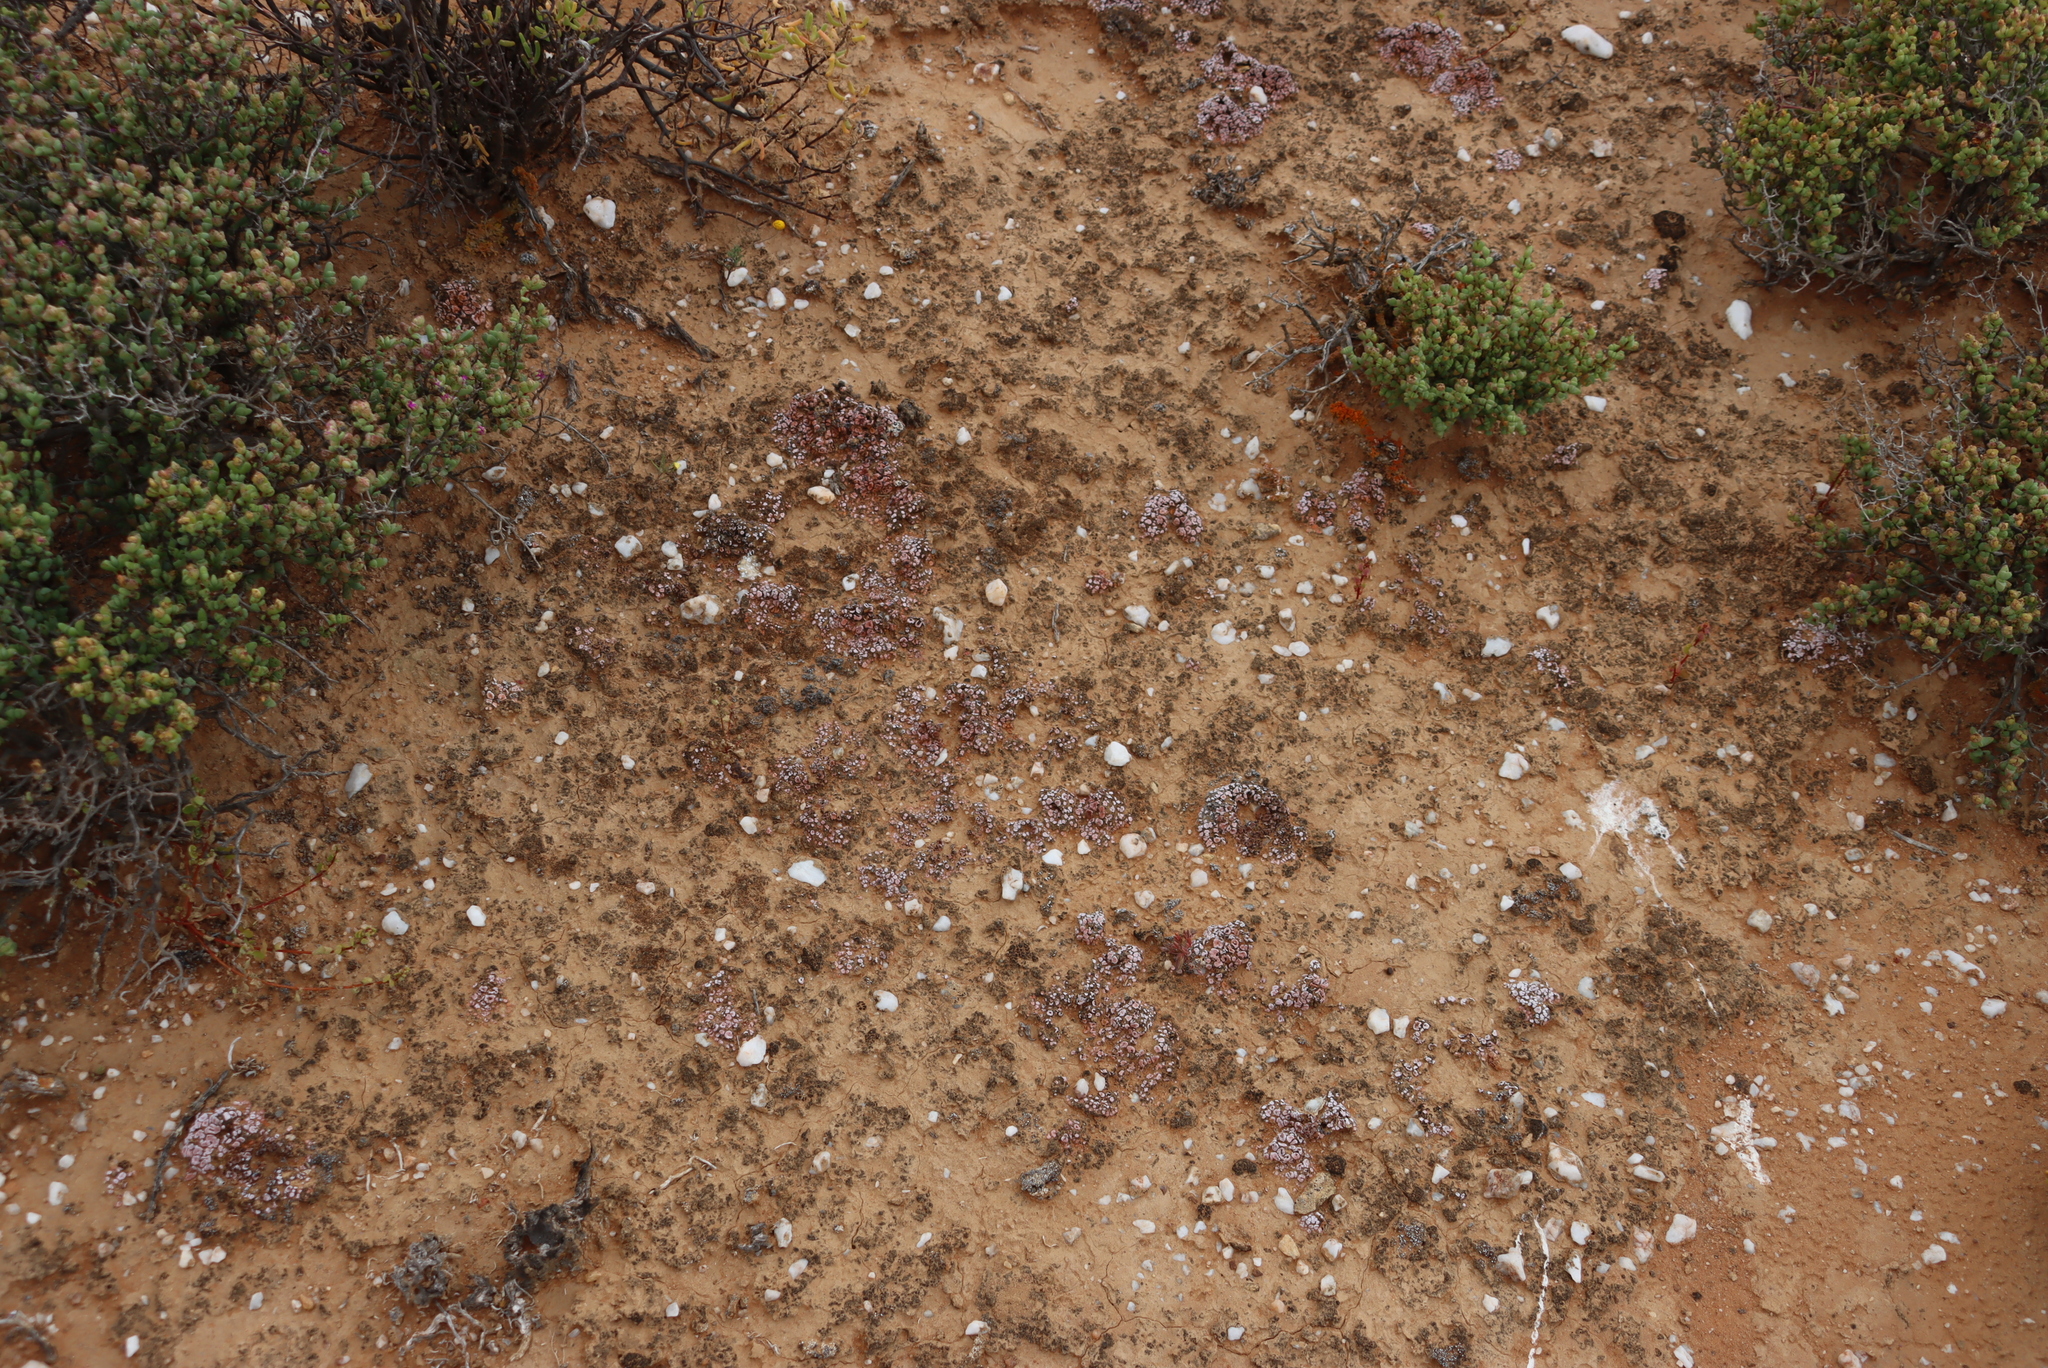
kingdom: Fungi
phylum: Ascomycota
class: Lecanoromycetes
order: Lecanorales
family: Psoraceae
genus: Psora
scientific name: Psora crenata
